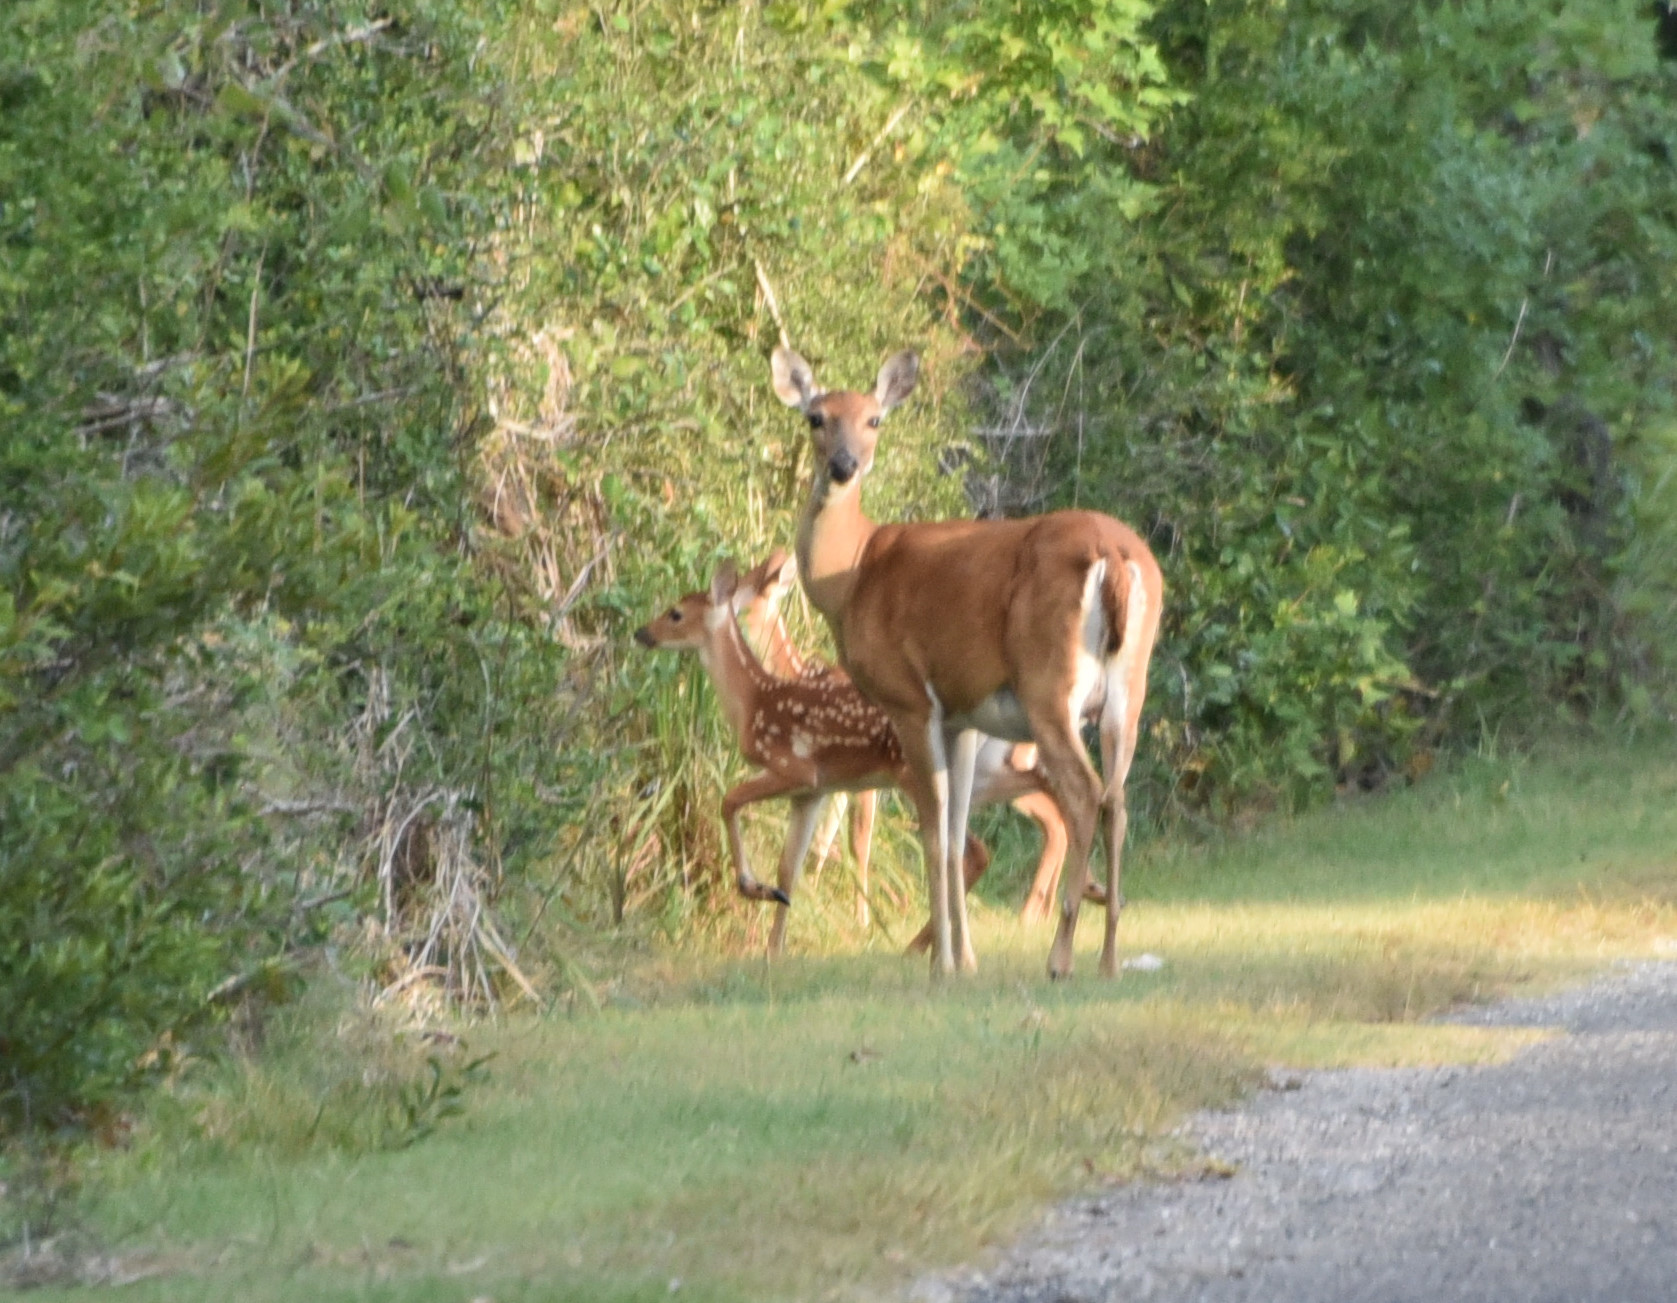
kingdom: Animalia
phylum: Chordata
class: Mammalia
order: Artiodactyla
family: Cervidae
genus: Odocoileus
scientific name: Odocoileus virginianus
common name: White-tailed deer
